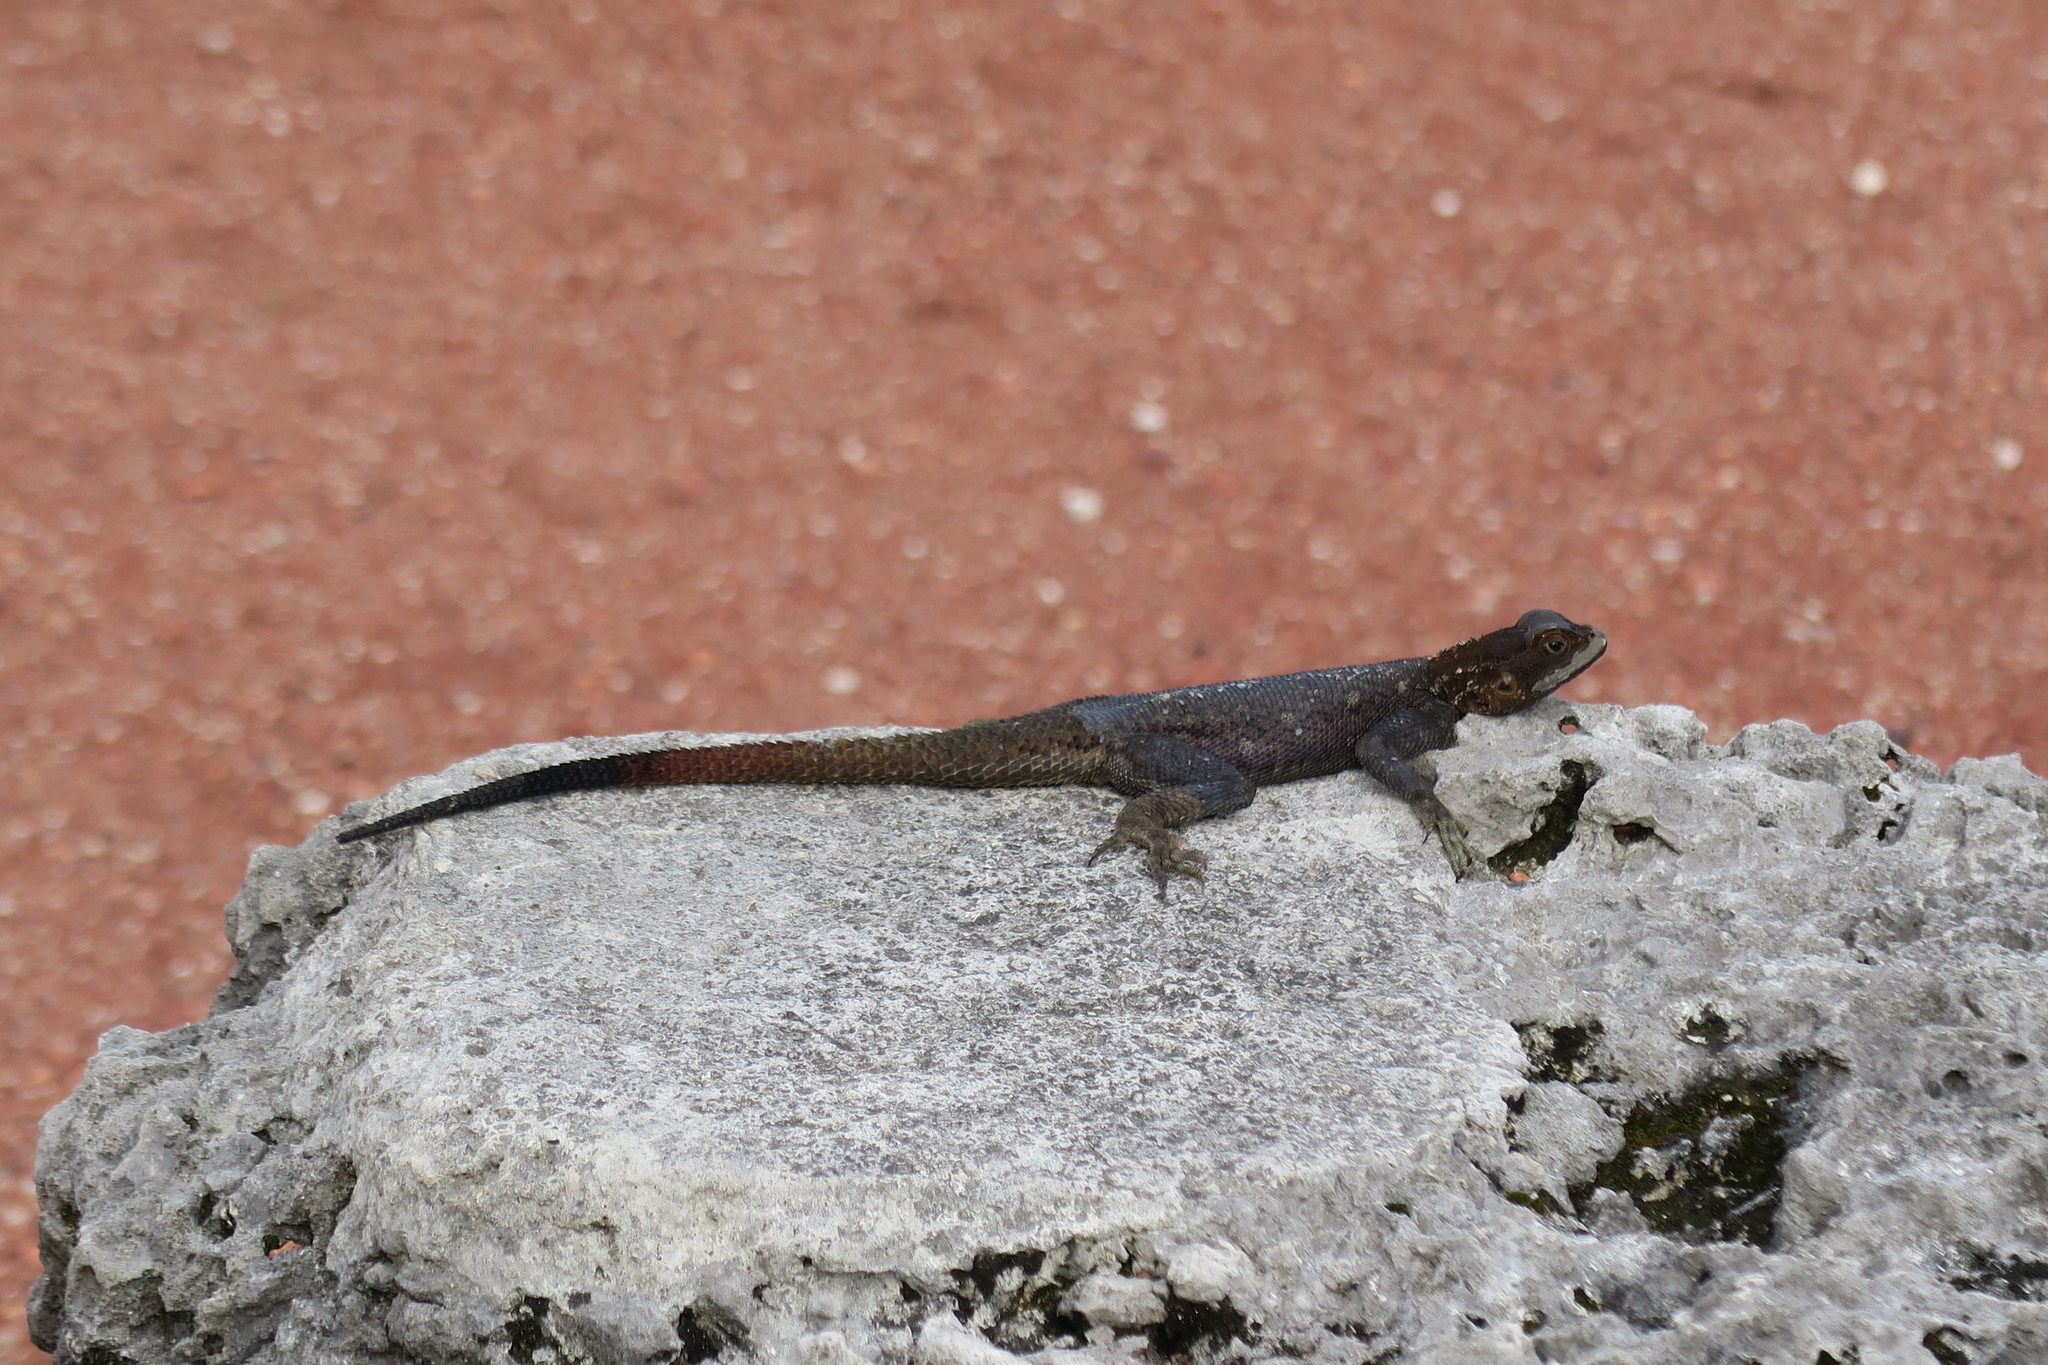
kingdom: Animalia
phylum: Chordata
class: Squamata
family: Agamidae
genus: Agama
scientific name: Agama picticauda
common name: Red-headed agama
